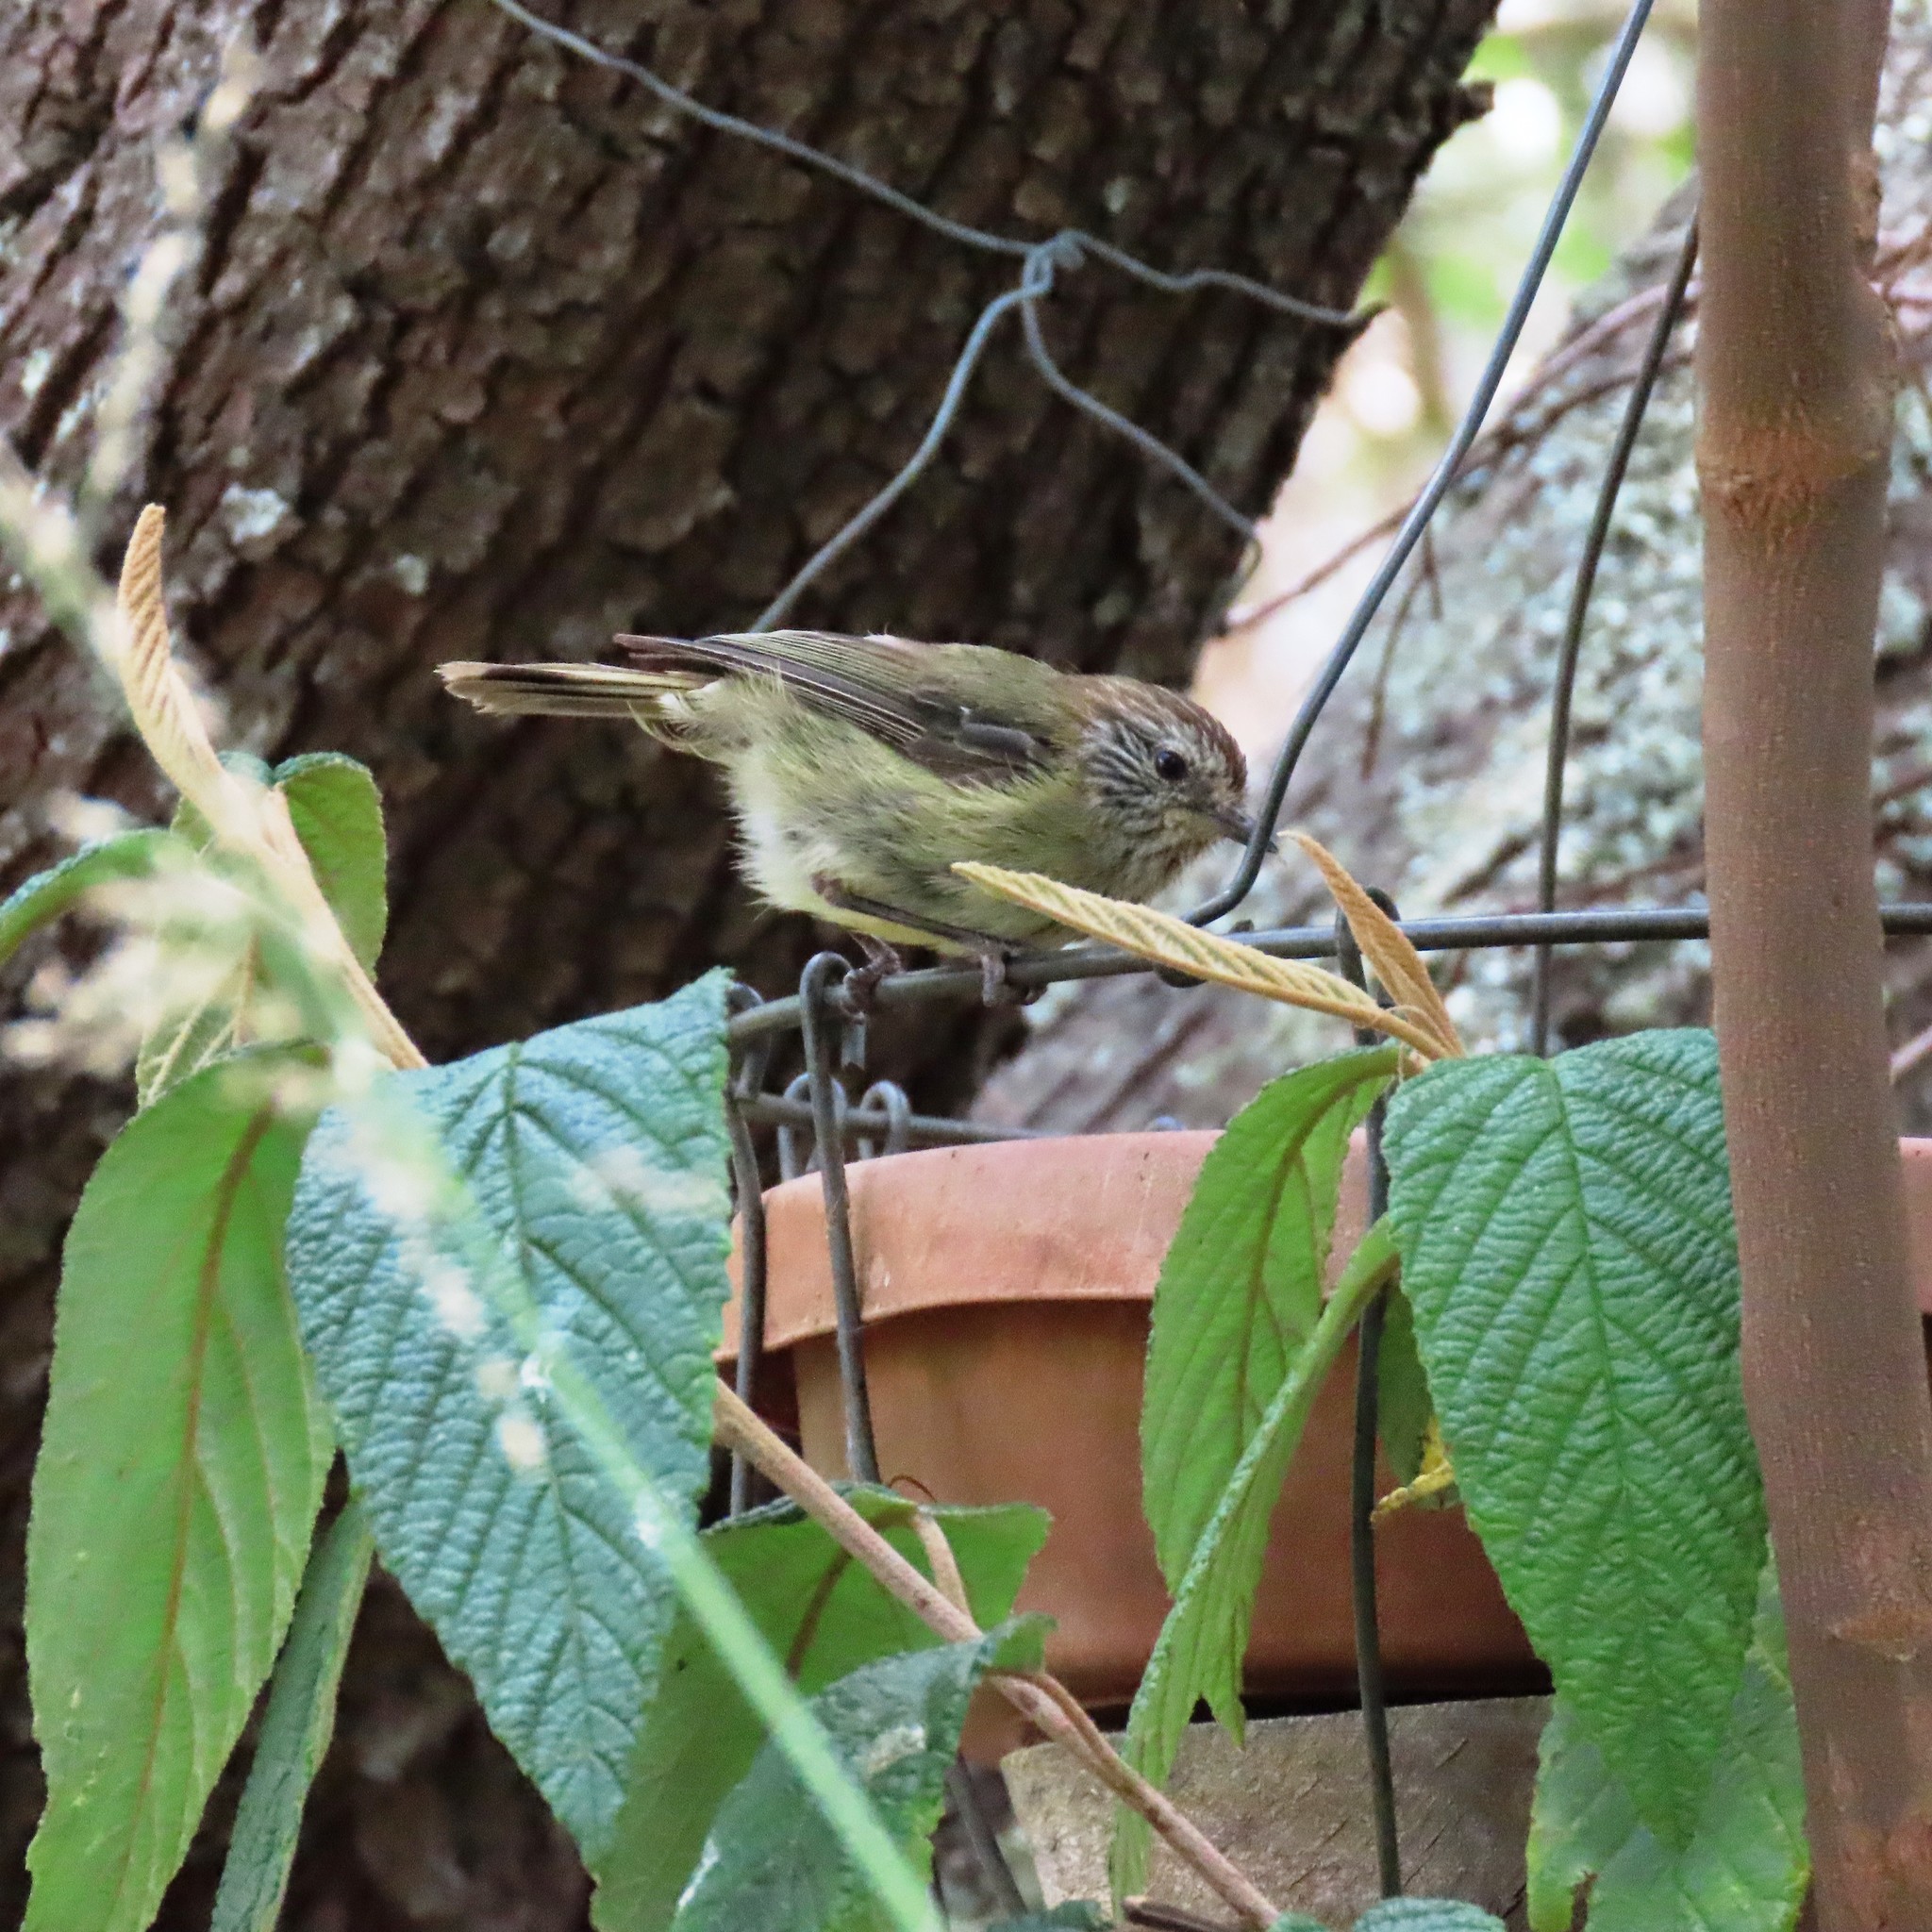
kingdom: Animalia
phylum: Chordata
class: Aves
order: Passeriformes
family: Acanthizidae
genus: Acanthiza
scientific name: Acanthiza lineata
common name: Striated thornbill
